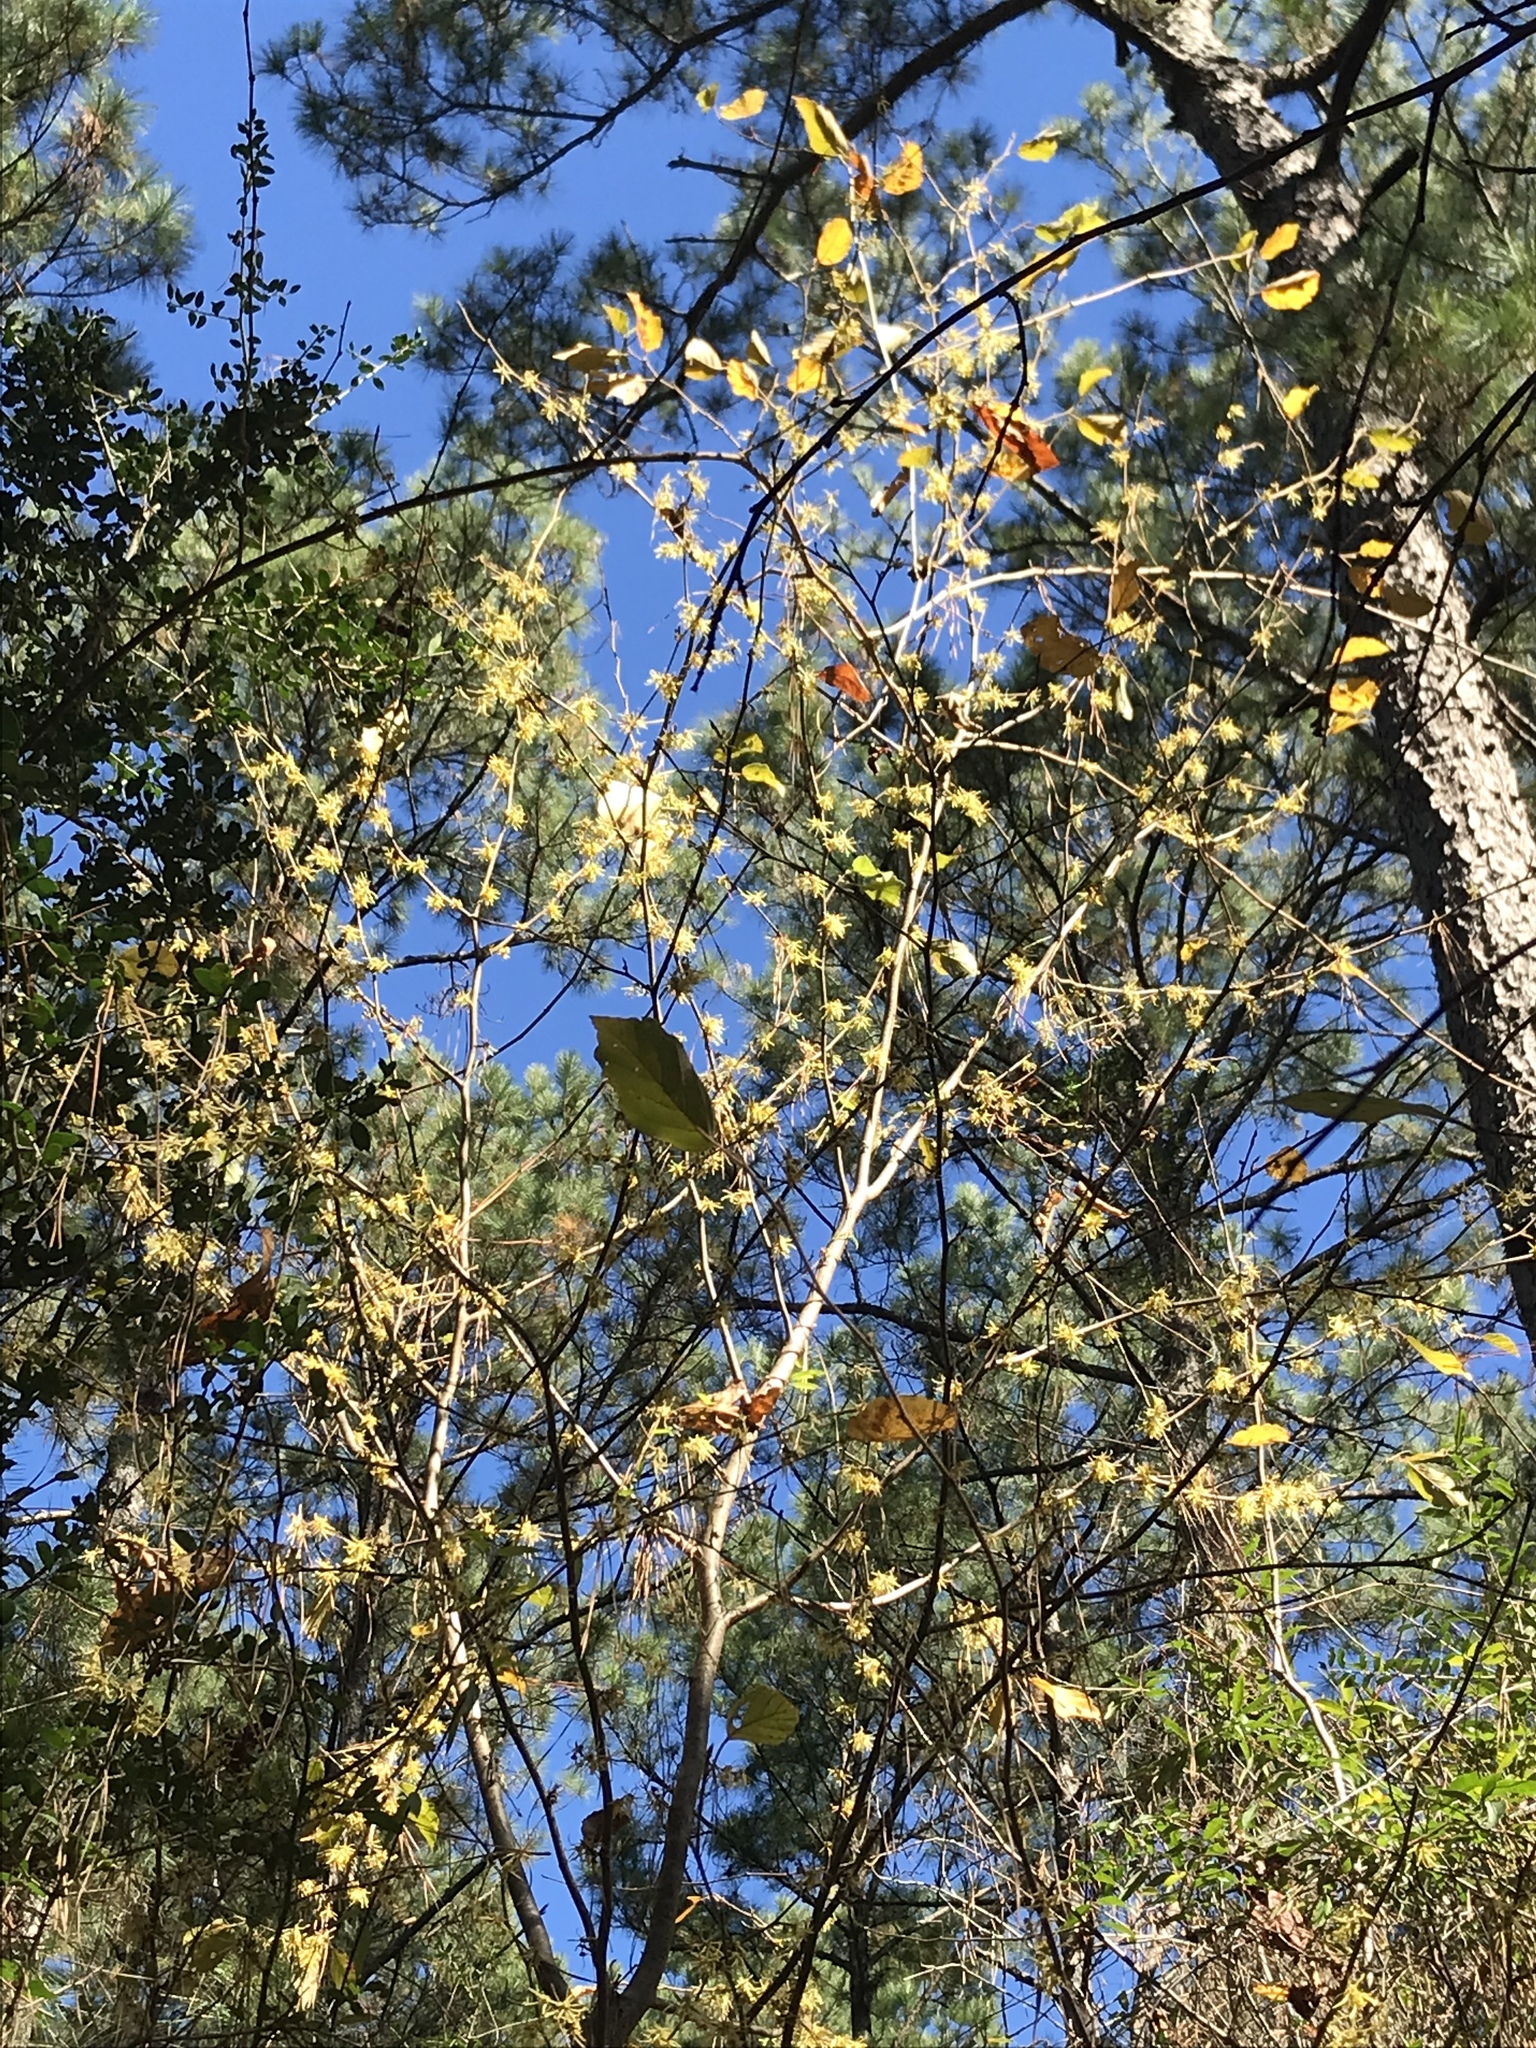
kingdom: Plantae
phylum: Tracheophyta
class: Magnoliopsida
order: Saxifragales
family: Hamamelidaceae
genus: Hamamelis
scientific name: Hamamelis virginiana
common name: Witch-hazel
